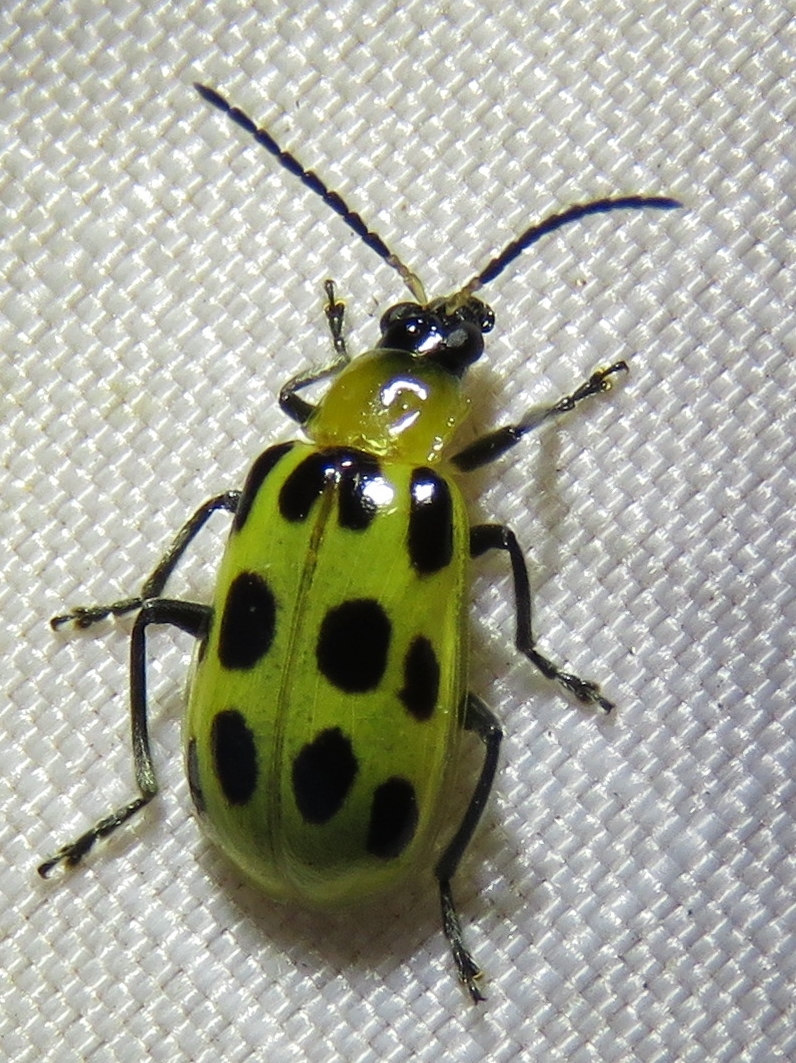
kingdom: Animalia
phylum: Arthropoda
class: Insecta
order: Coleoptera
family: Chrysomelidae
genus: Diabrotica
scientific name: Diabrotica undecimpunctata
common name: Spotted cucumber beetle
